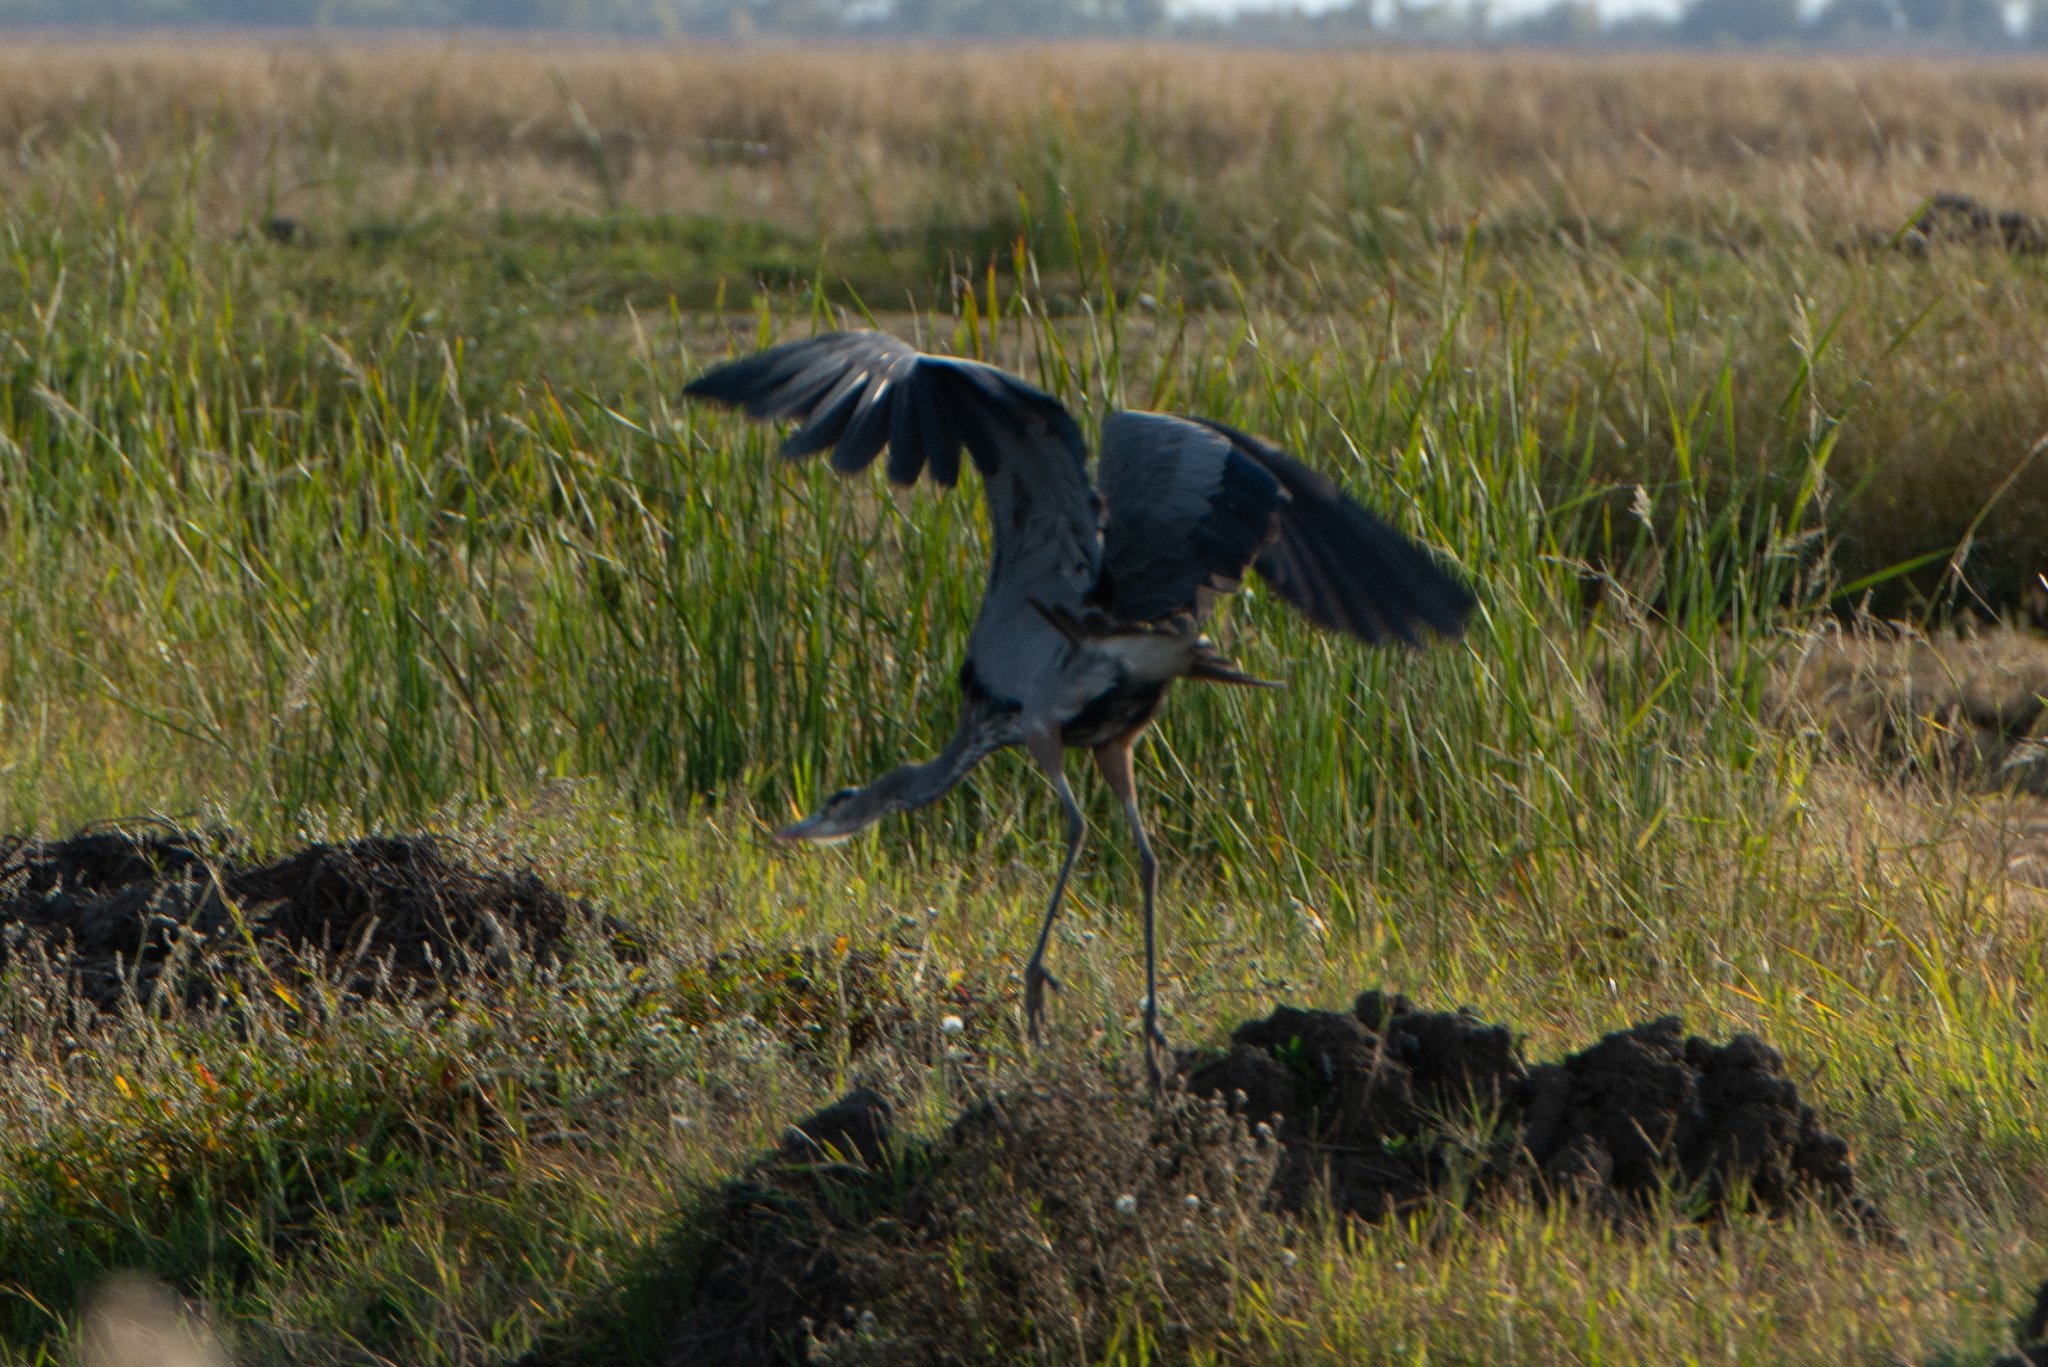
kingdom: Animalia
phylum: Chordata
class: Aves
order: Pelecaniformes
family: Ardeidae
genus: Ardea
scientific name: Ardea herodias
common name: Great blue heron
